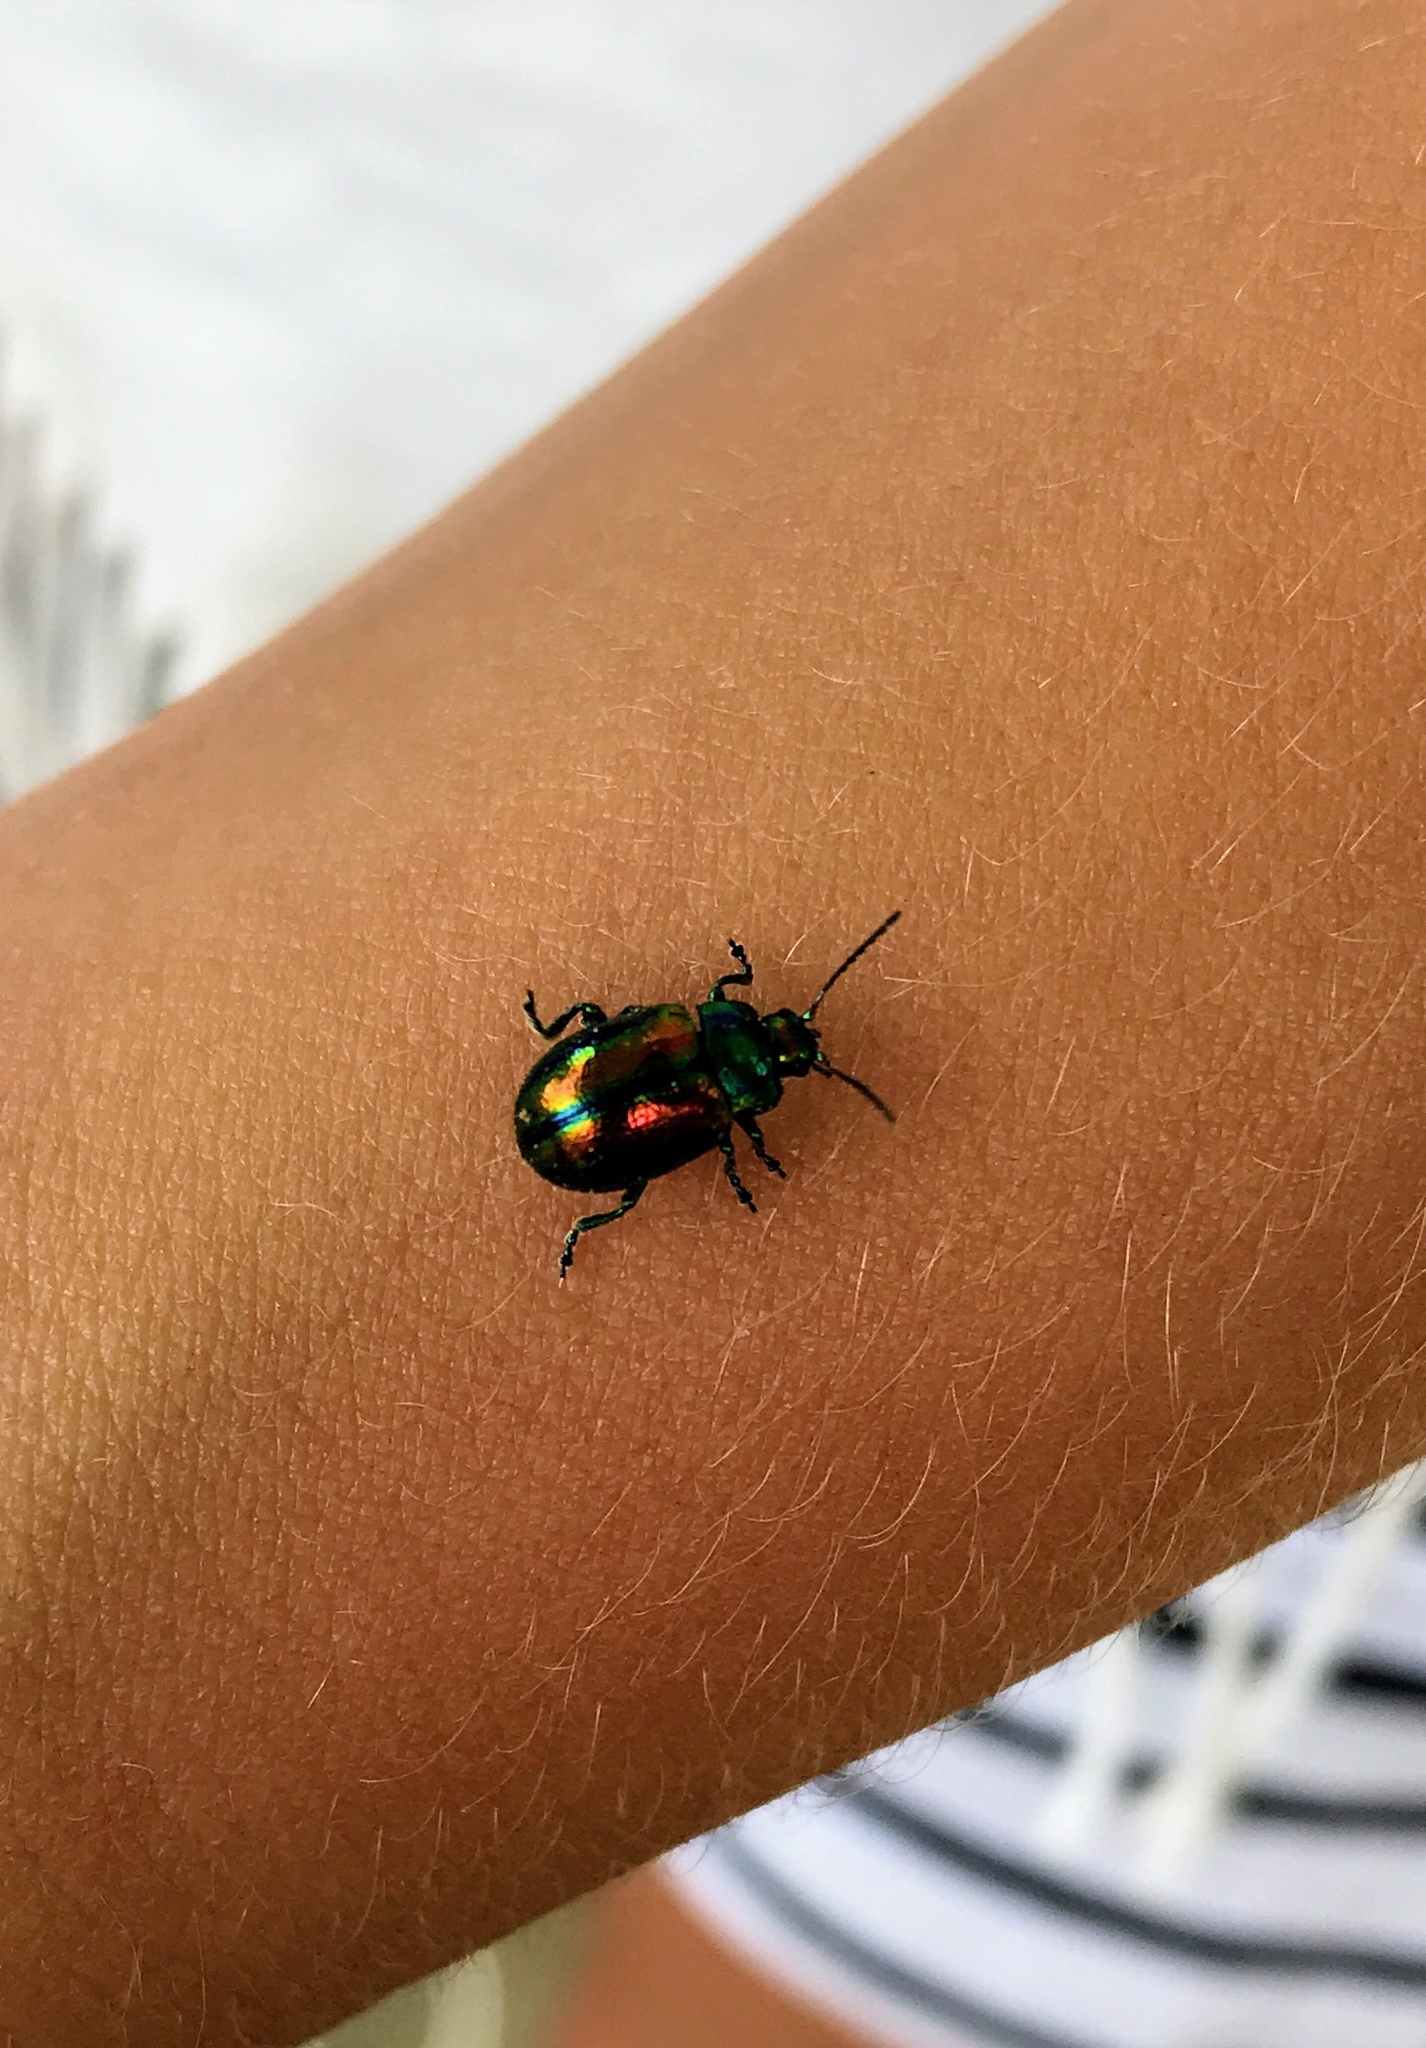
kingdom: Animalia
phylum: Arthropoda
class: Insecta
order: Coleoptera
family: Chrysomelidae
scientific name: Chrysomelidae
